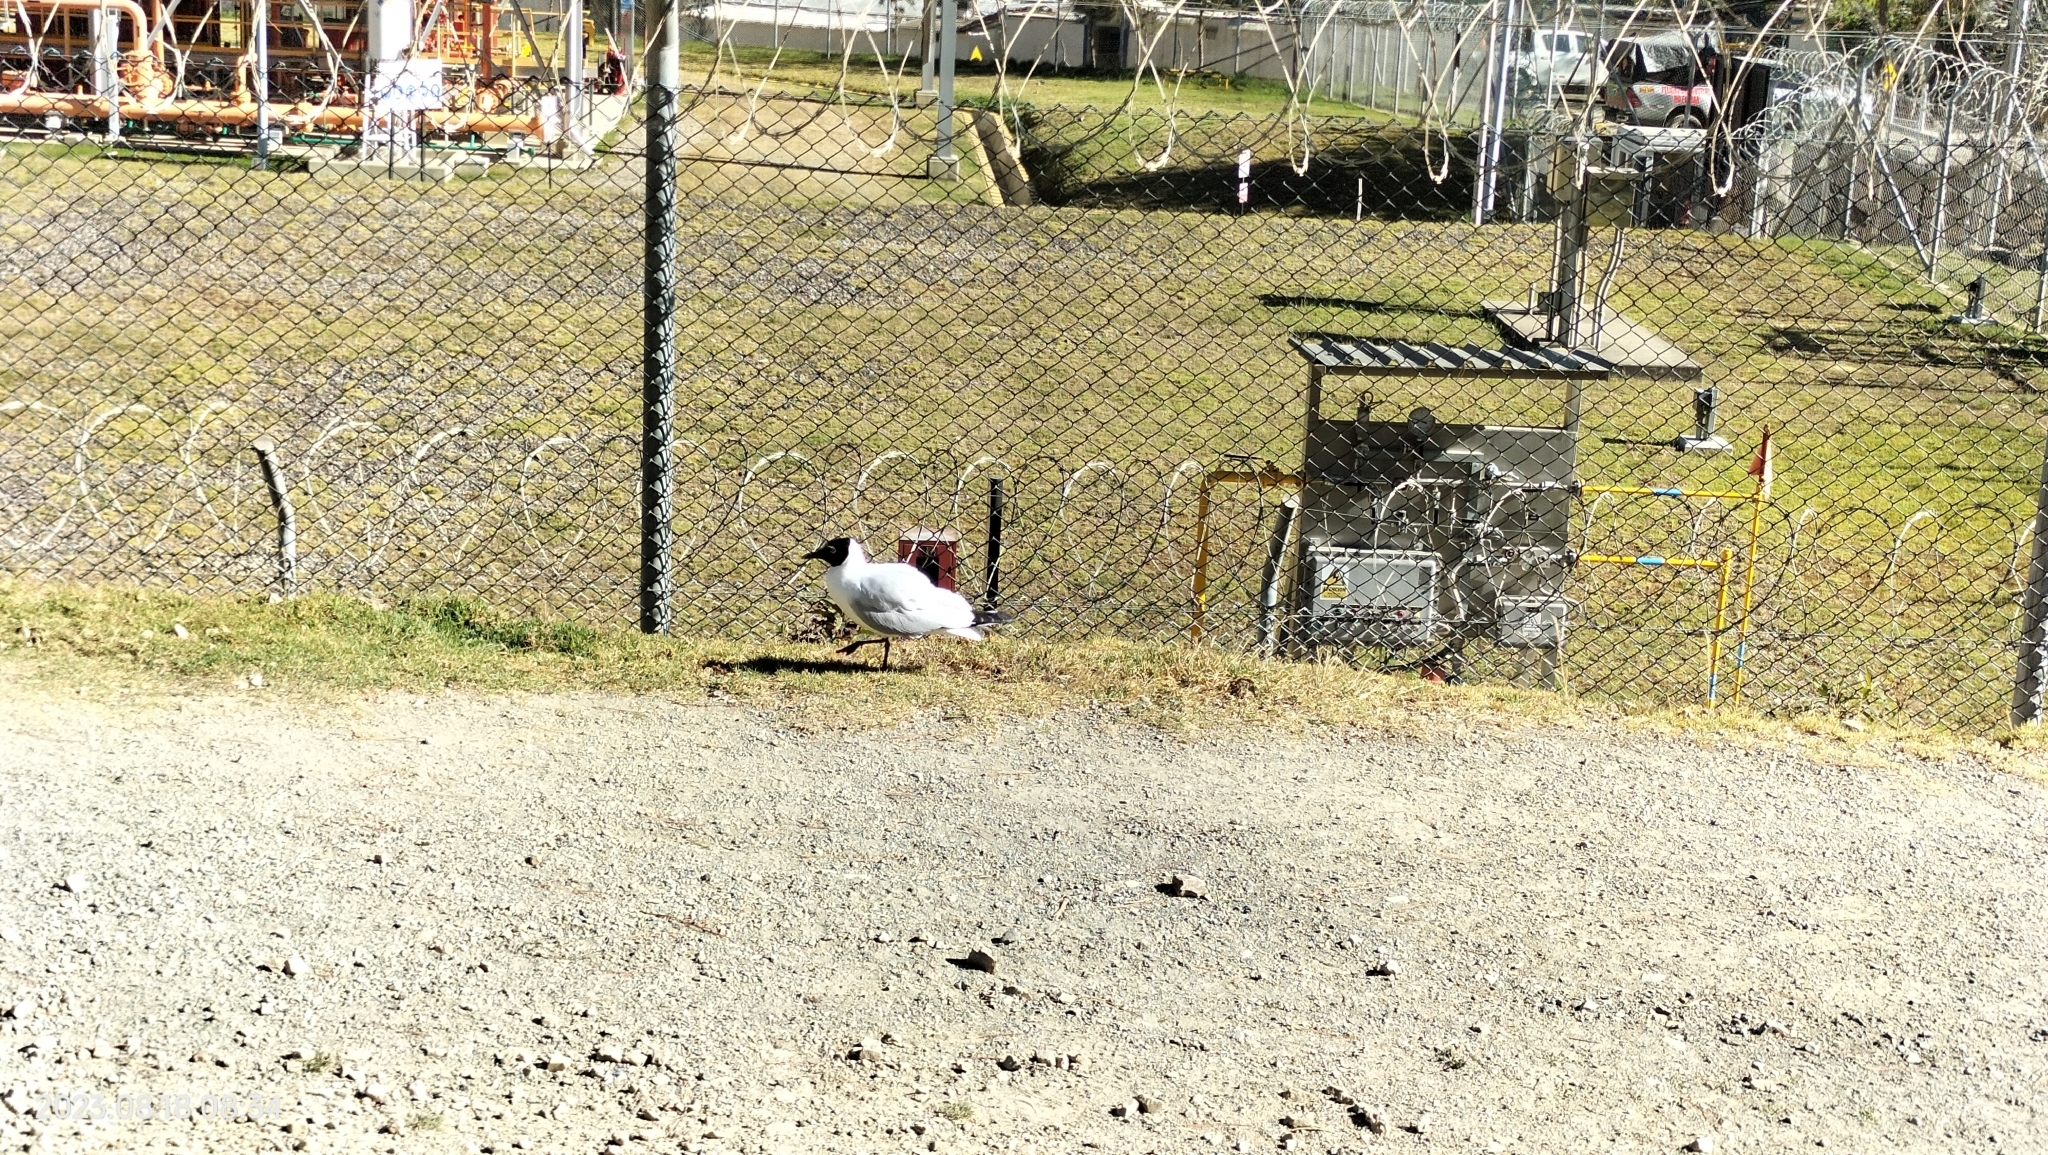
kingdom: Animalia
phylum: Chordata
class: Aves
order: Charadriiformes
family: Laridae
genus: Chroicocephalus
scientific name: Chroicocephalus serranus
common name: Andean gull
